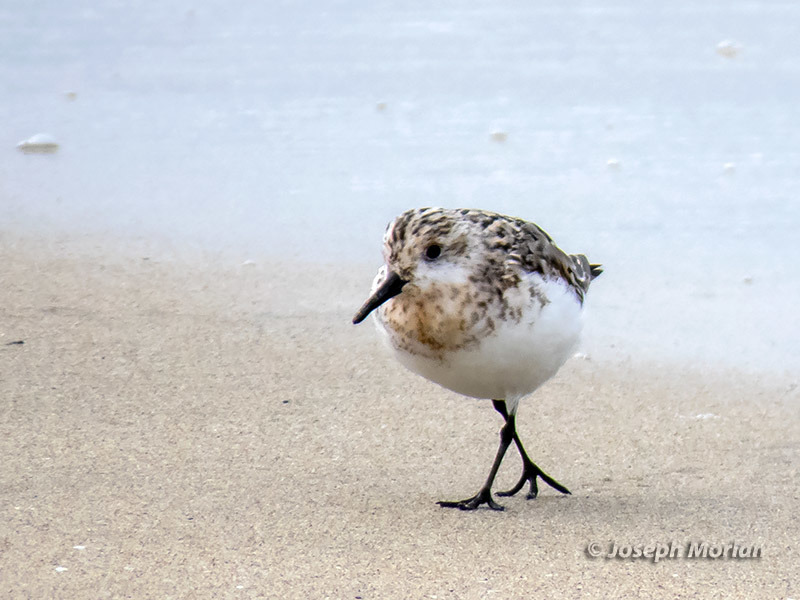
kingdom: Animalia
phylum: Chordata
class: Aves
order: Charadriiformes
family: Scolopacidae
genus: Calidris
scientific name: Calidris alba
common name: Sanderling
